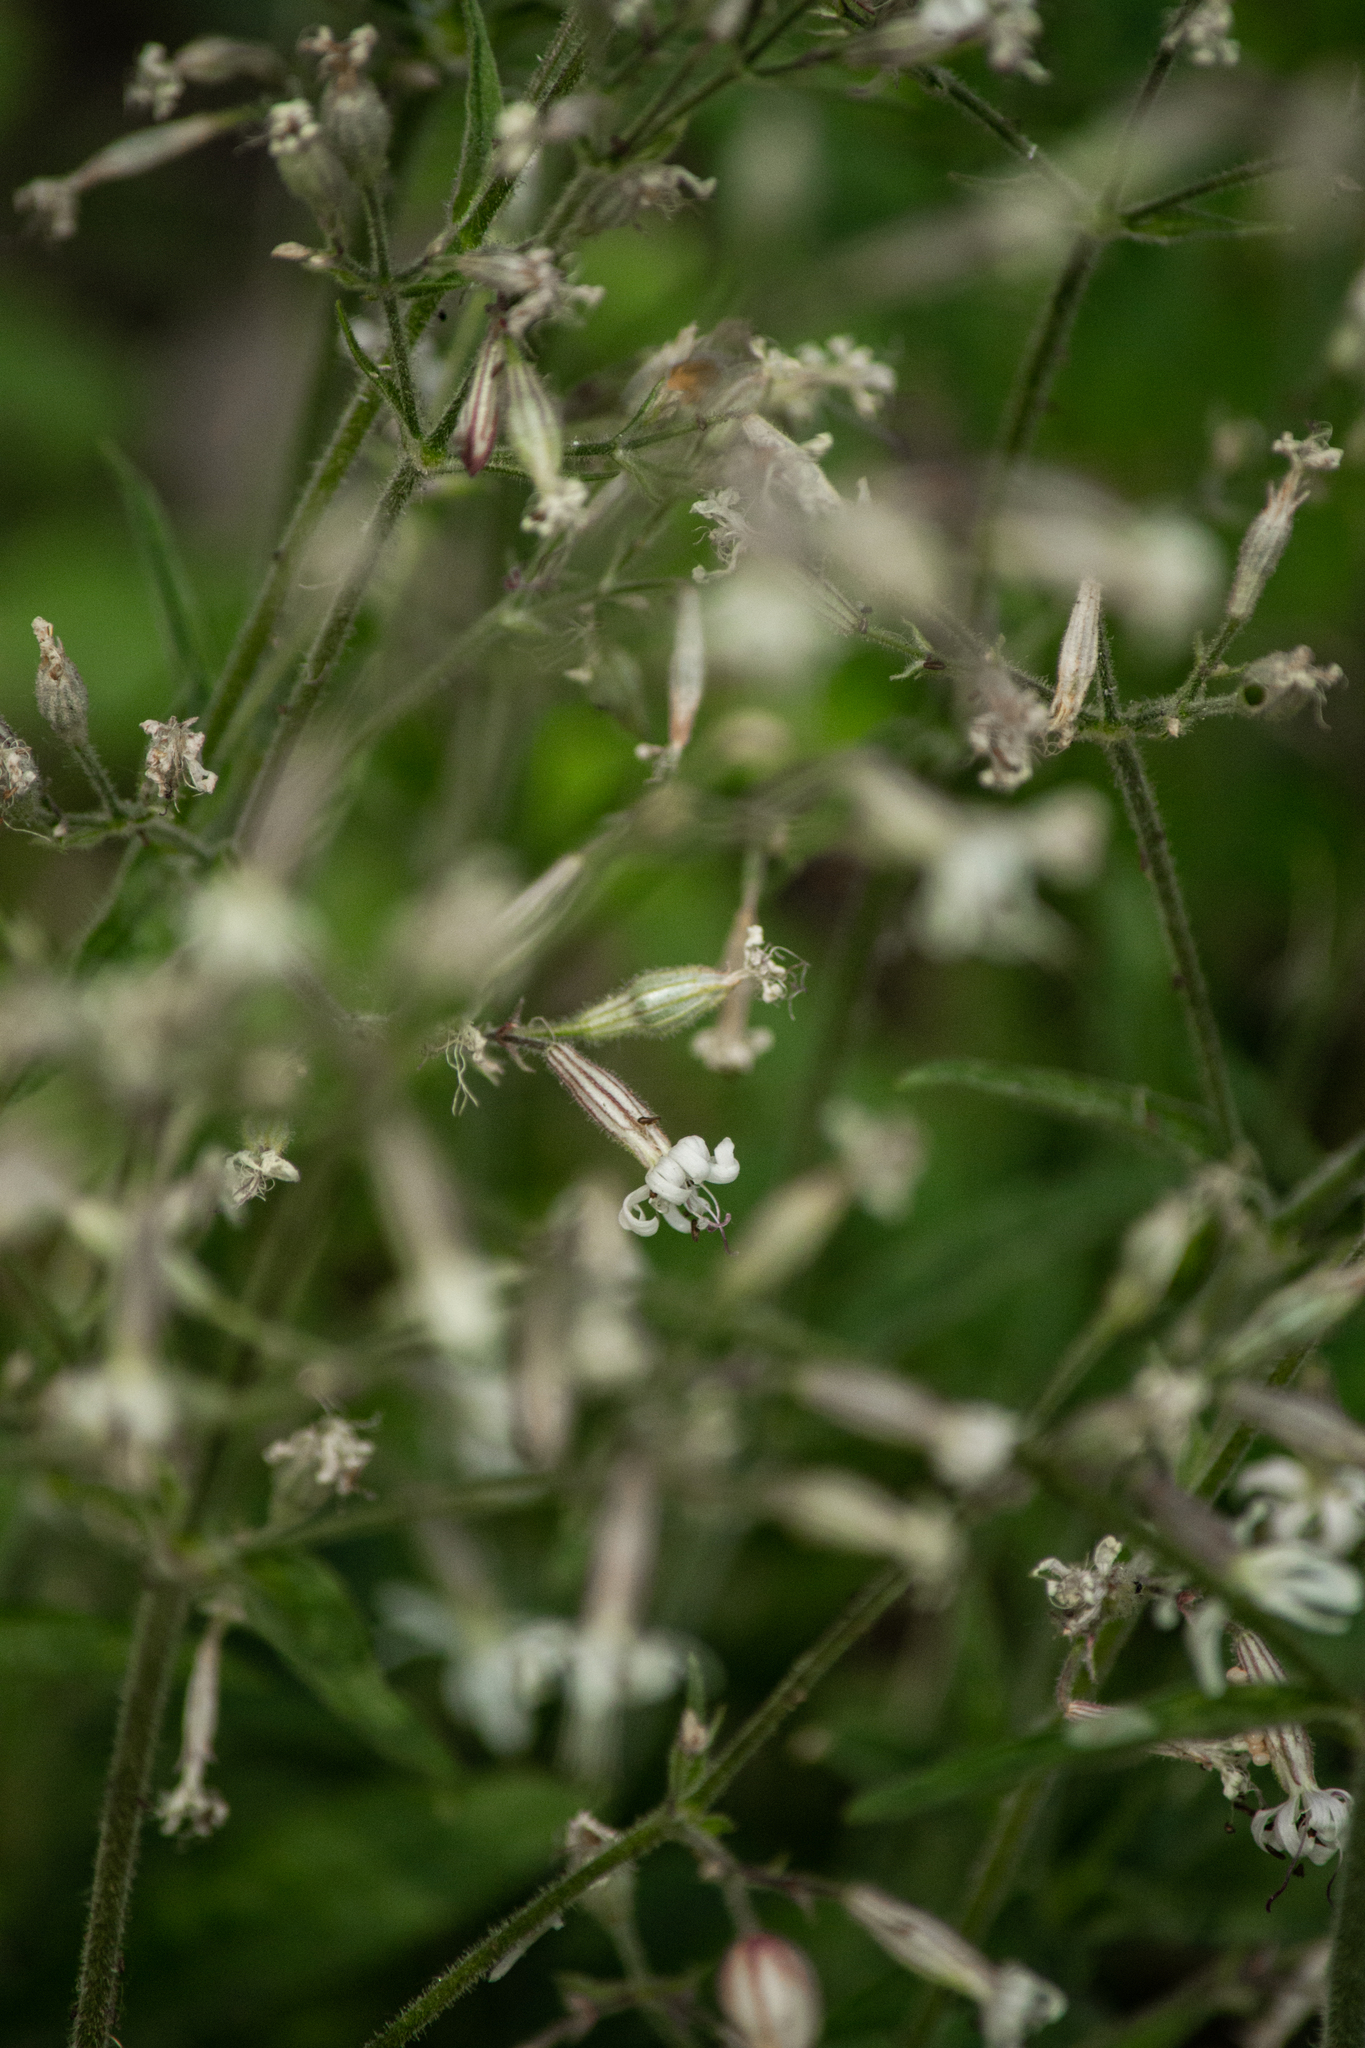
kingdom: Plantae
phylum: Tracheophyta
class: Magnoliopsida
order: Caryophyllales
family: Caryophyllaceae
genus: Silene
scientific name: Silene nutans
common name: Nottingham catchfly
